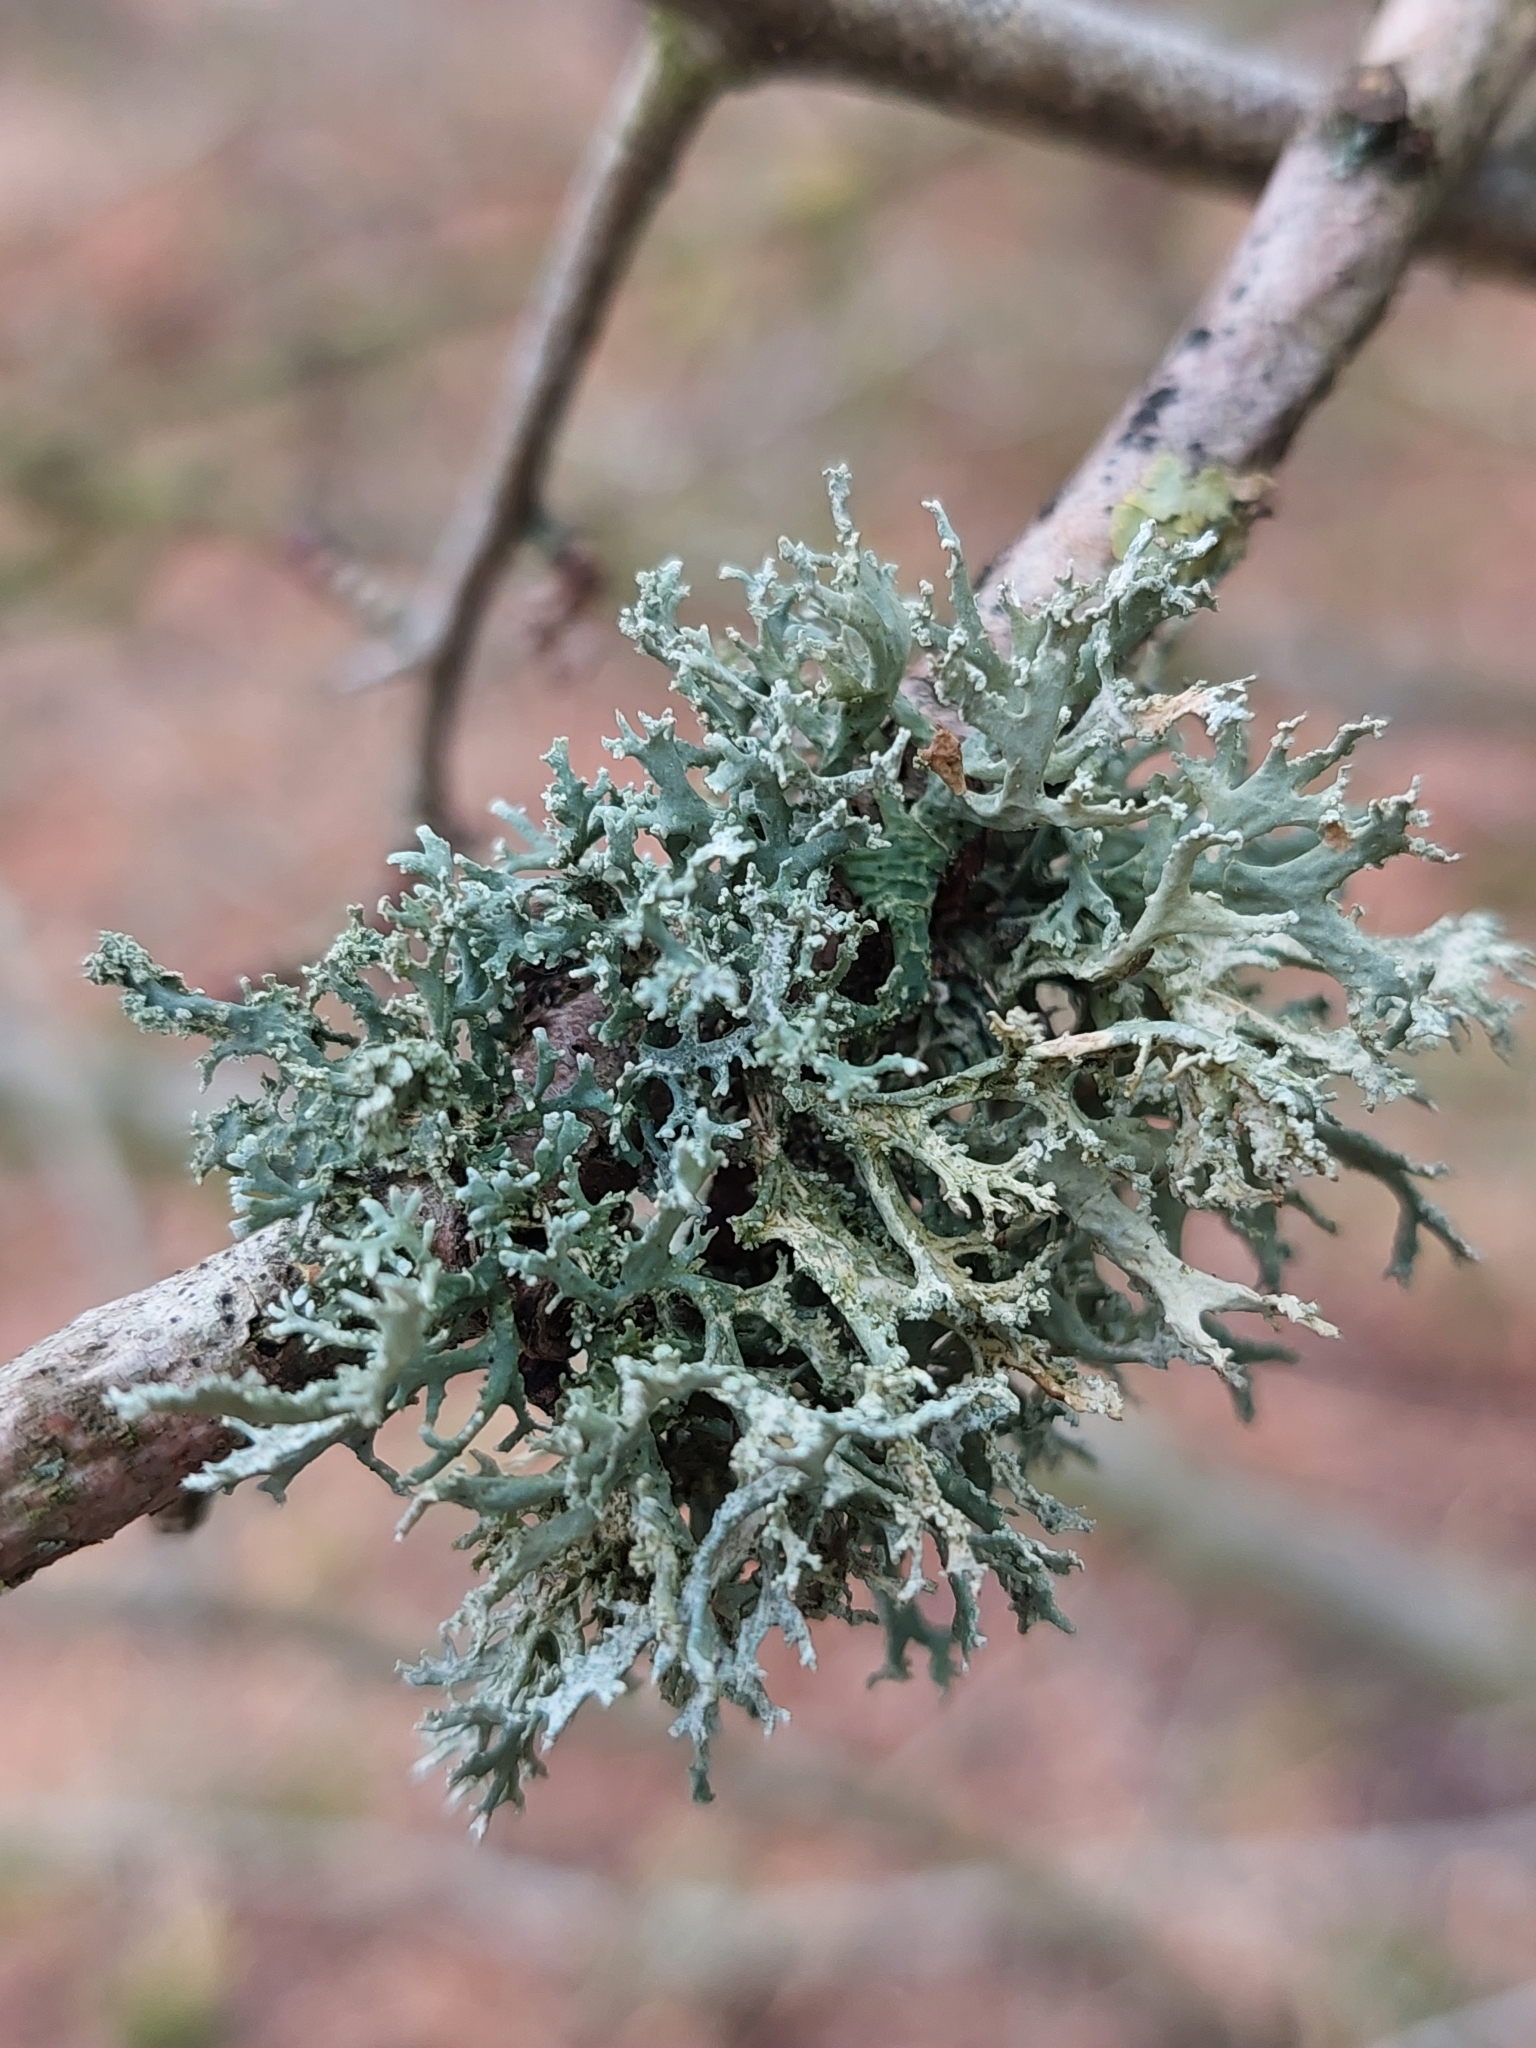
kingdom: Fungi
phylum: Ascomycota
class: Lecanoromycetes
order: Lecanorales
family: Parmeliaceae
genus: Evernia
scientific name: Evernia prunastri
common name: Oak moss
